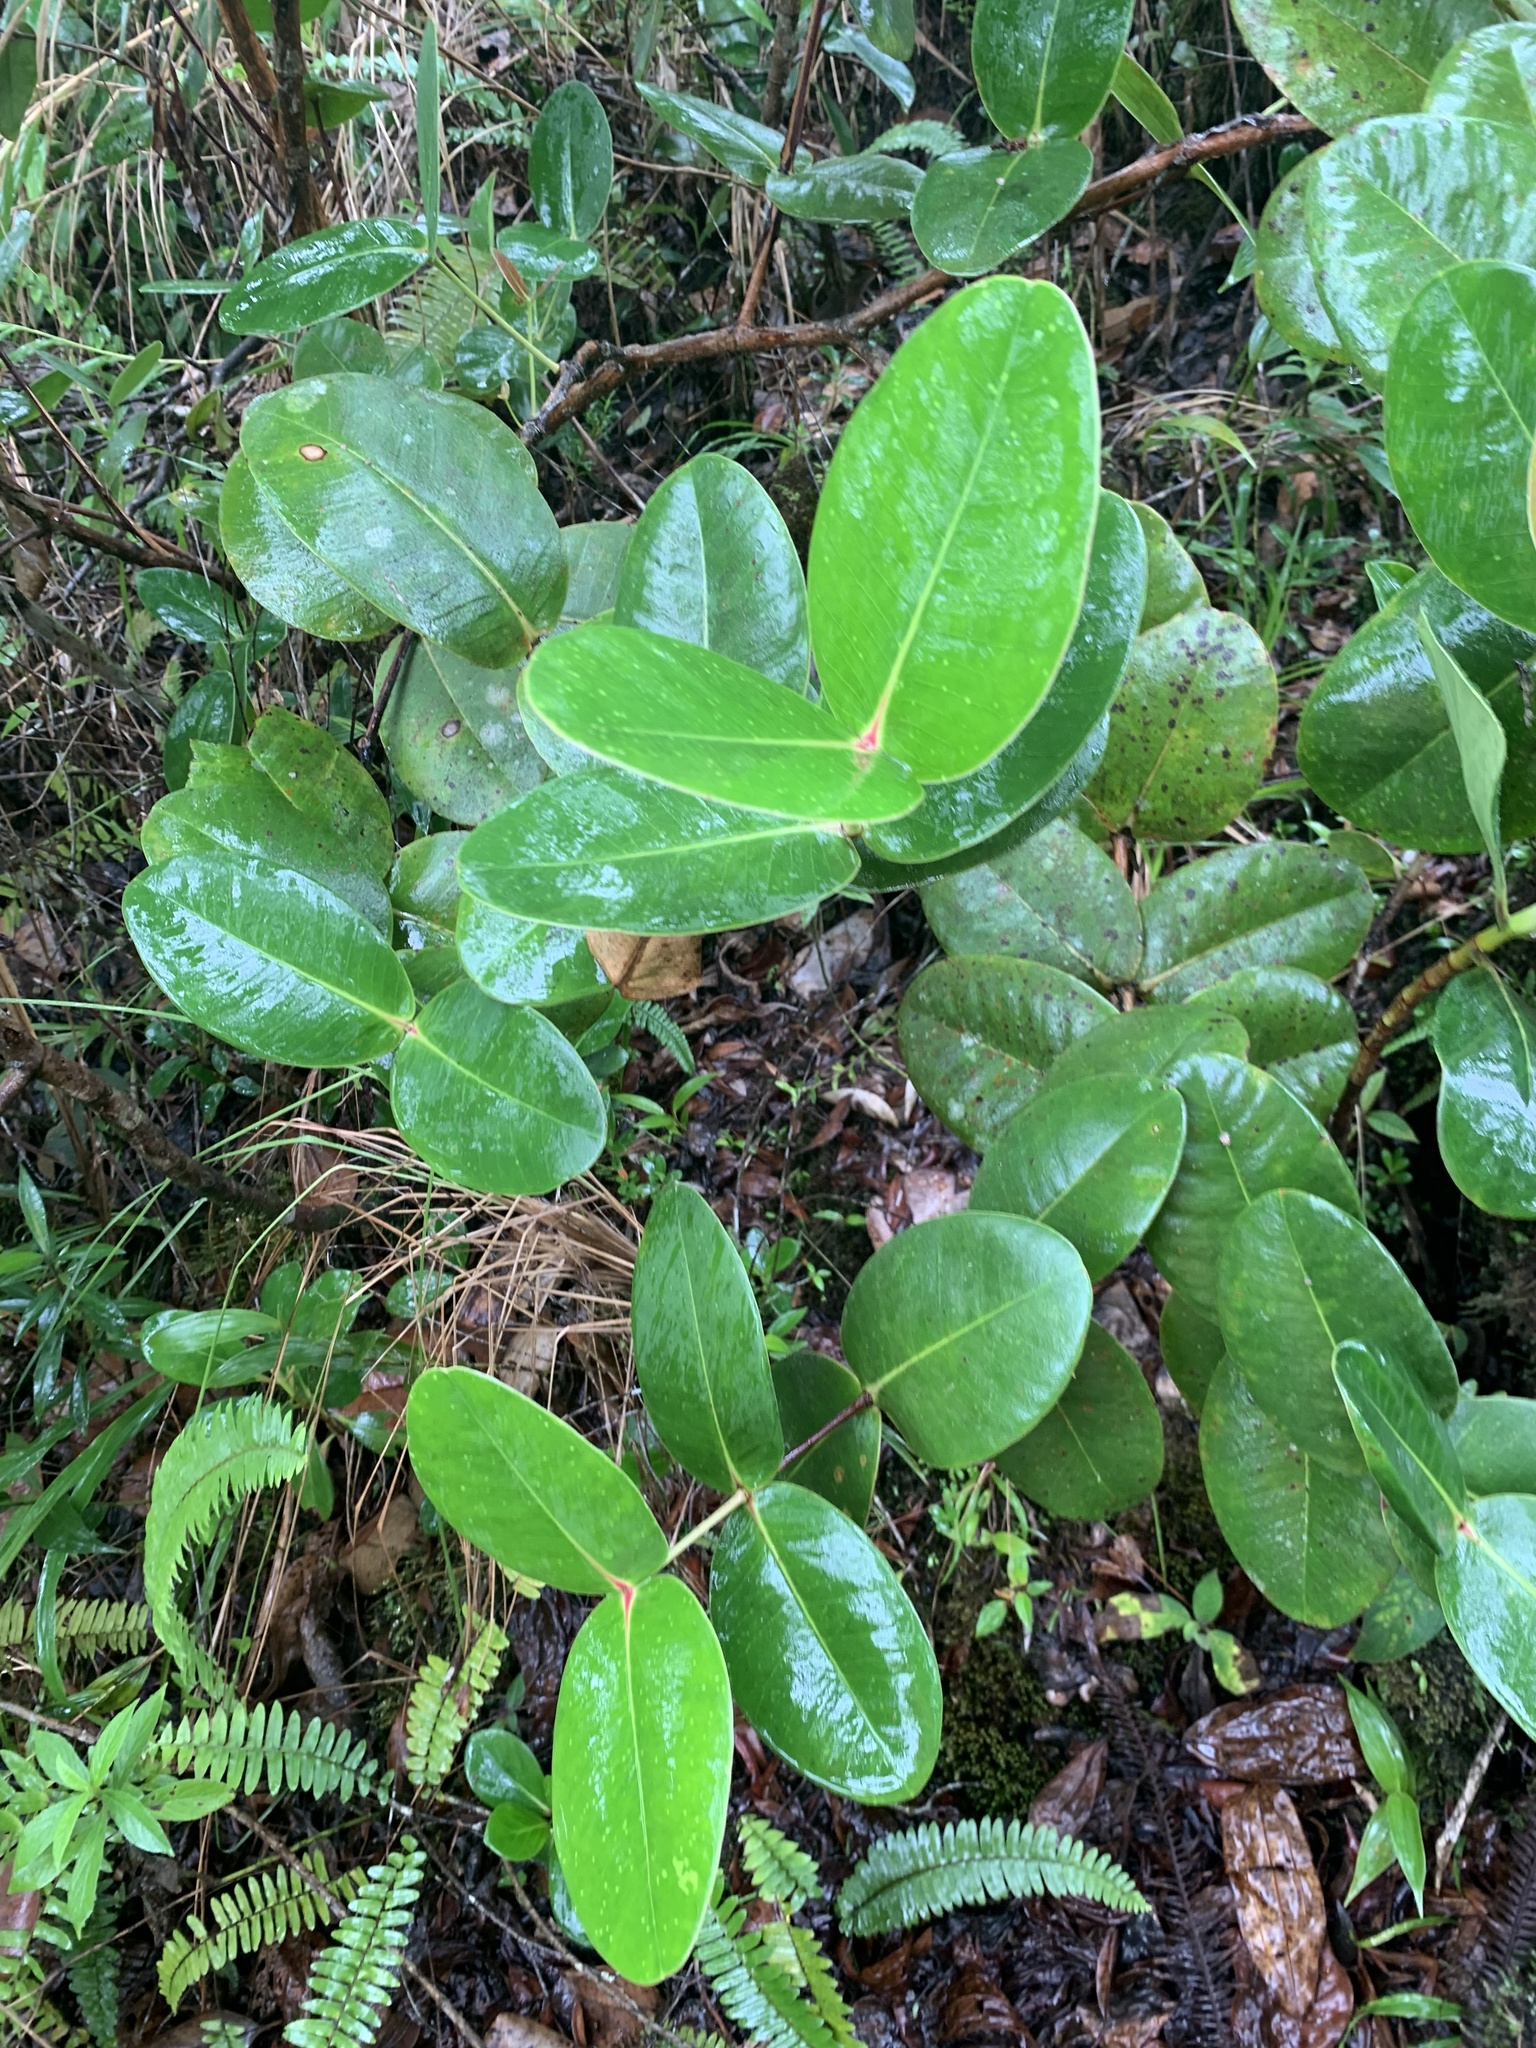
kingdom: Plantae
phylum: Tracheophyta
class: Magnoliopsida
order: Myrtales
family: Alzateaceae
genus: Alzatea
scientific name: Alzatea verticillata
